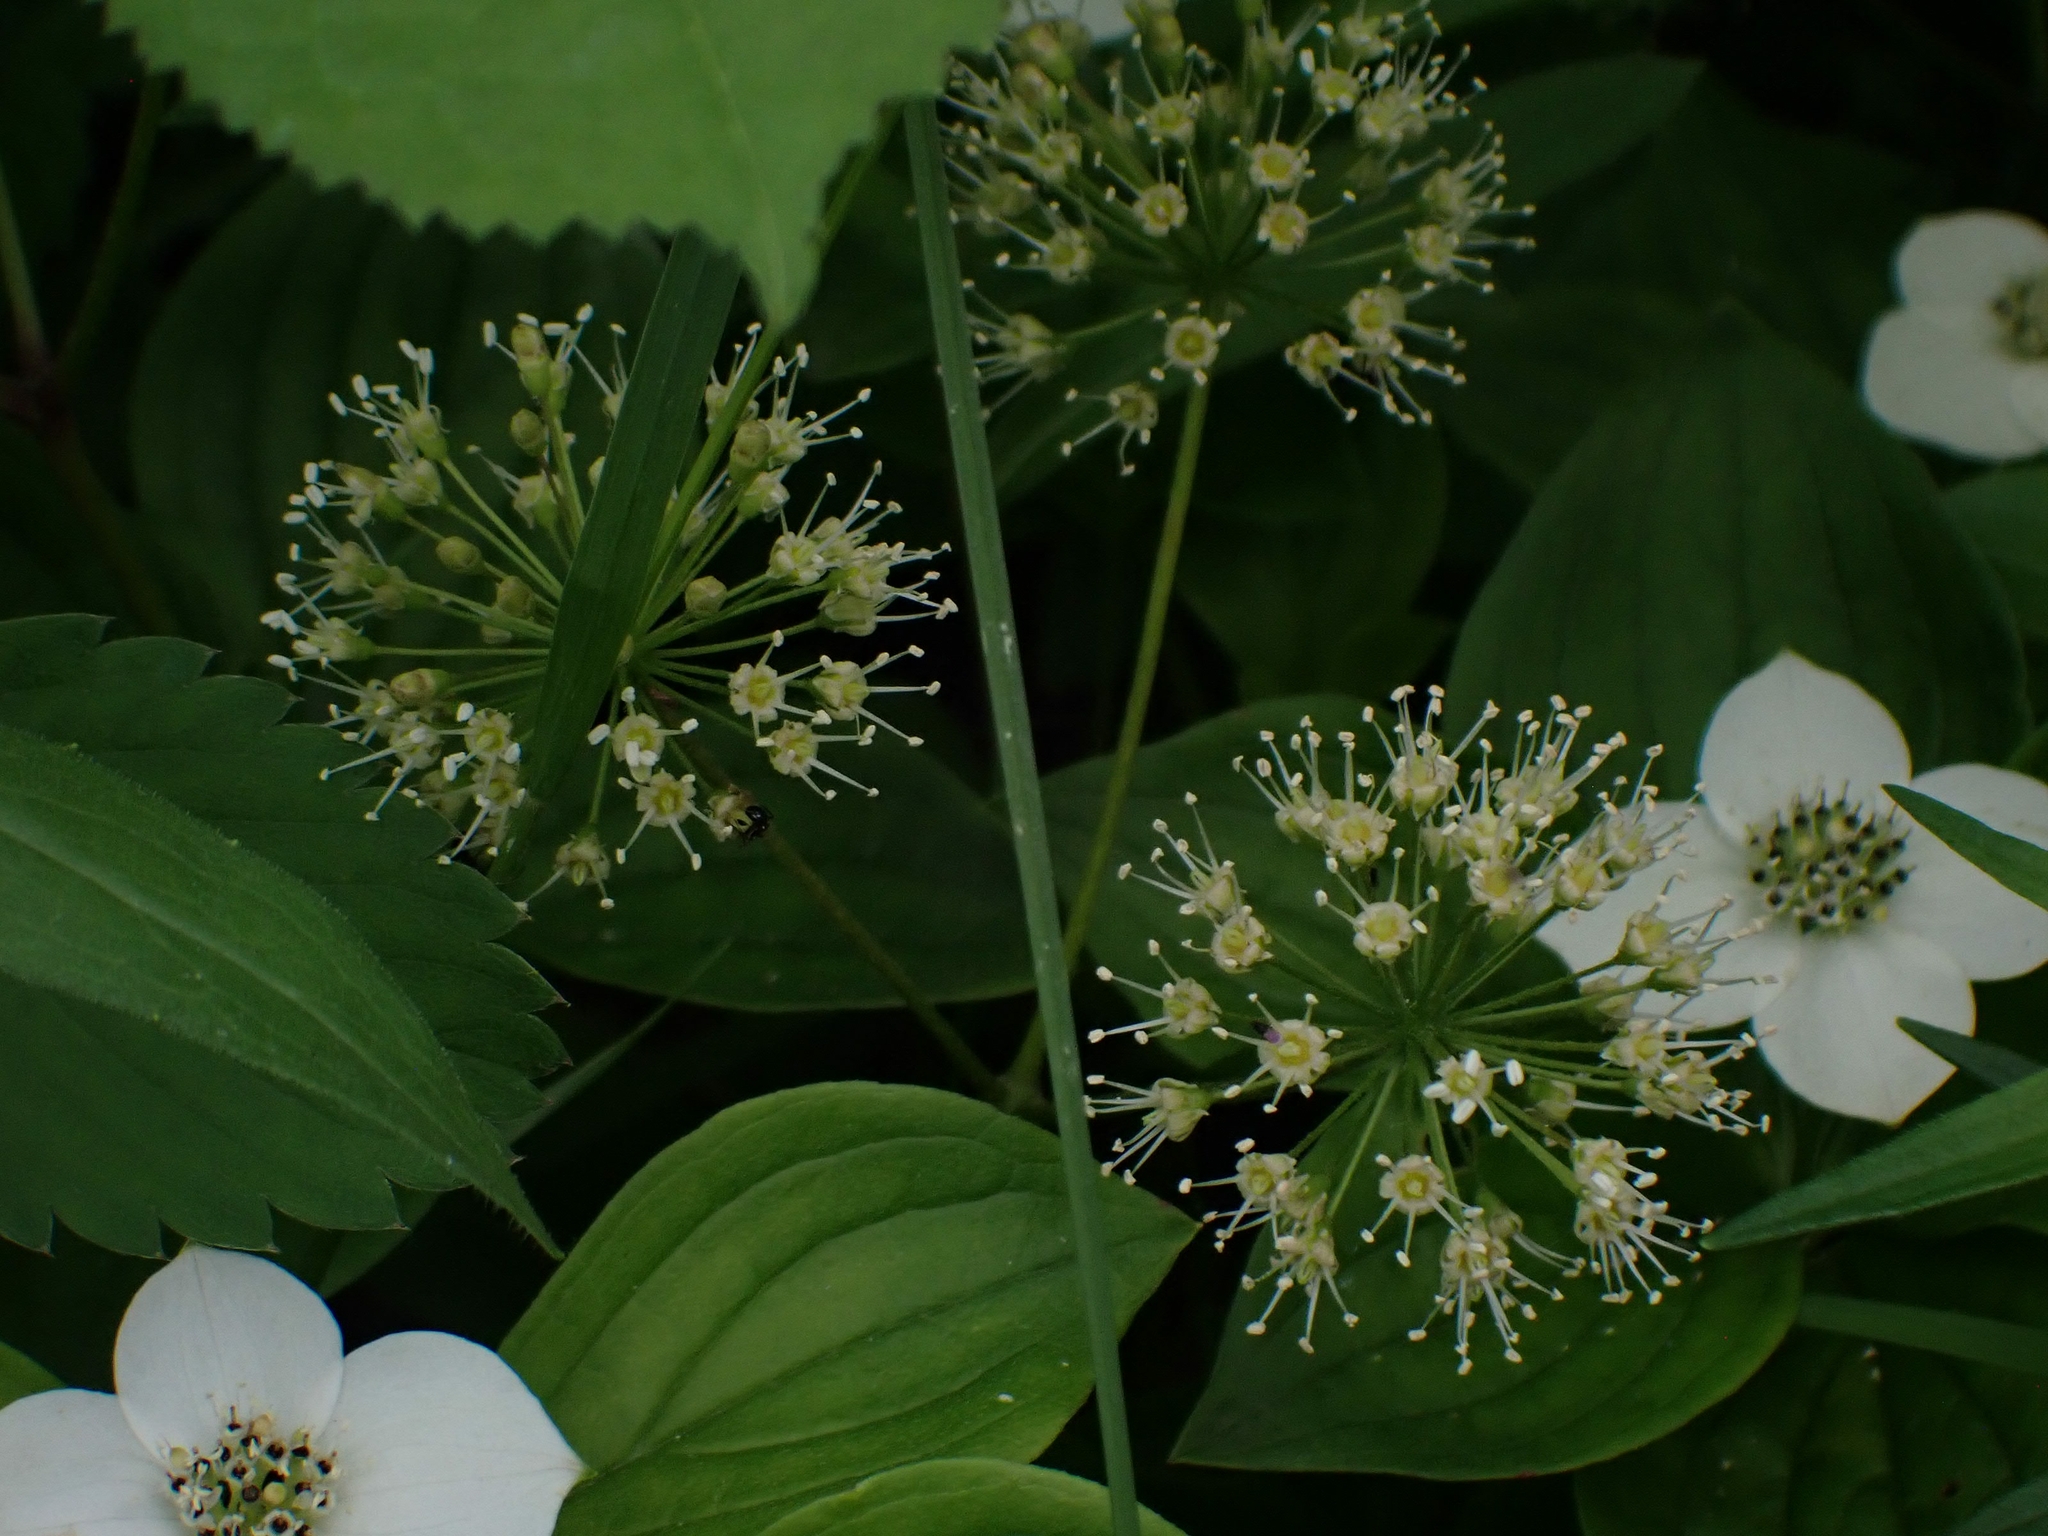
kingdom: Plantae
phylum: Tracheophyta
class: Magnoliopsida
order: Apiales
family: Araliaceae
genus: Aralia
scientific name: Aralia nudicaulis
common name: Wild sarsaparilla
